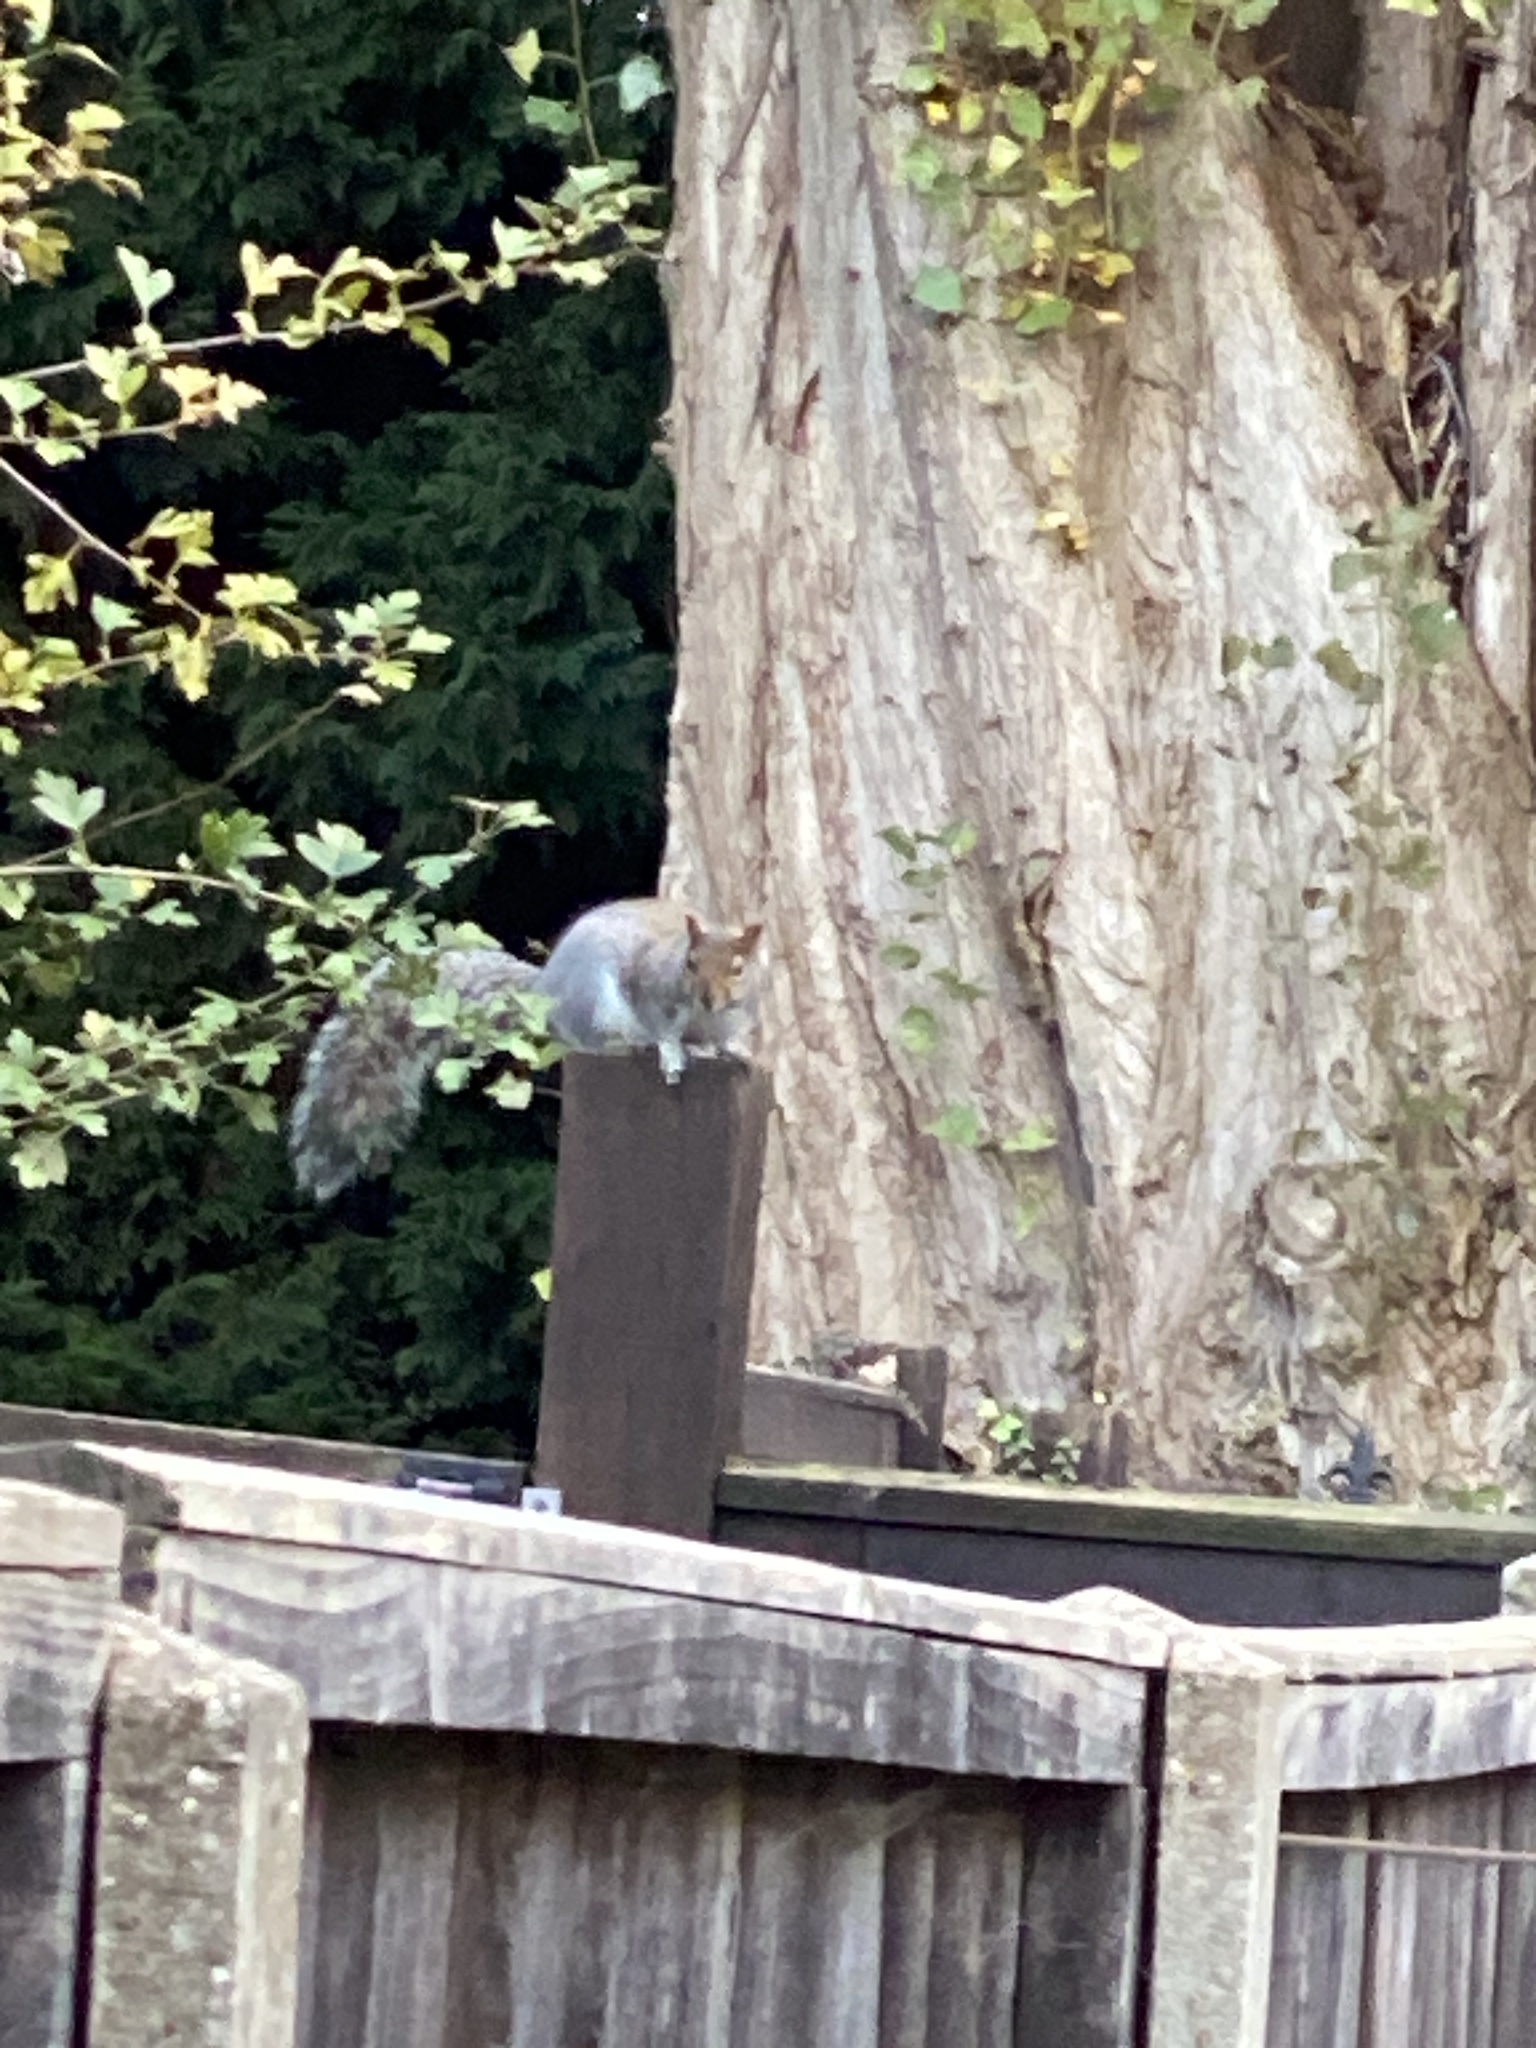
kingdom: Animalia
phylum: Chordata
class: Mammalia
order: Rodentia
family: Sciuridae
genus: Sciurus
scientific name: Sciurus carolinensis
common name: Eastern gray squirrel
